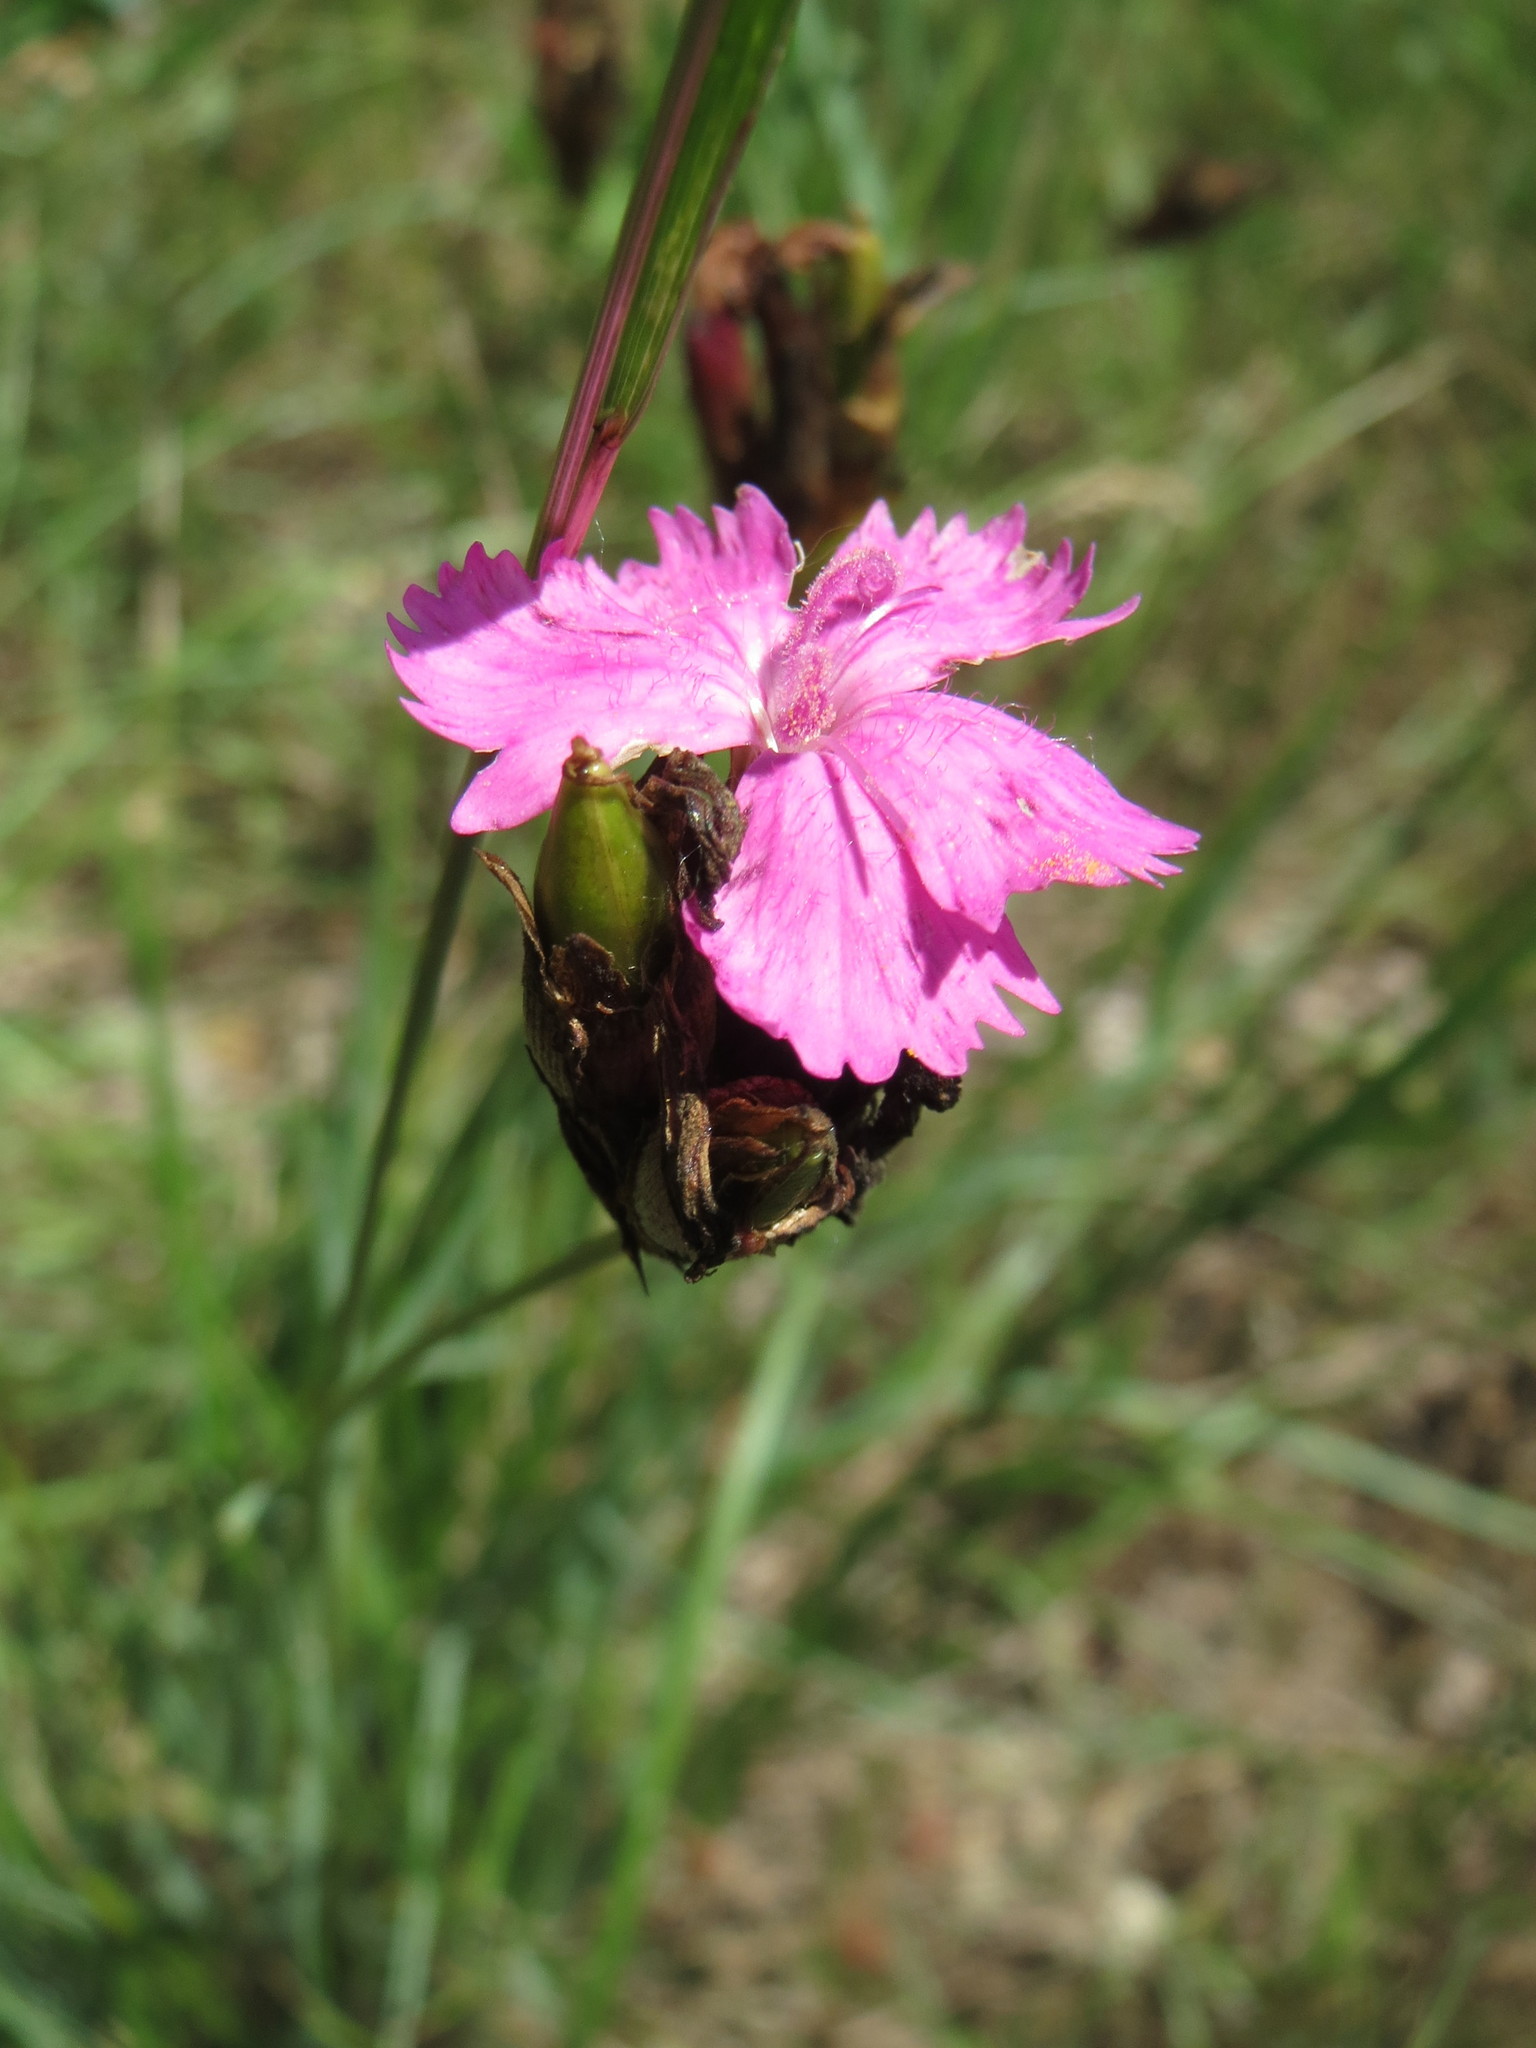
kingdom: Plantae
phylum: Tracheophyta
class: Magnoliopsida
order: Caryophyllales
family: Caryophyllaceae
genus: Dianthus
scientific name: Dianthus carthusianorum
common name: Carthusian pink
